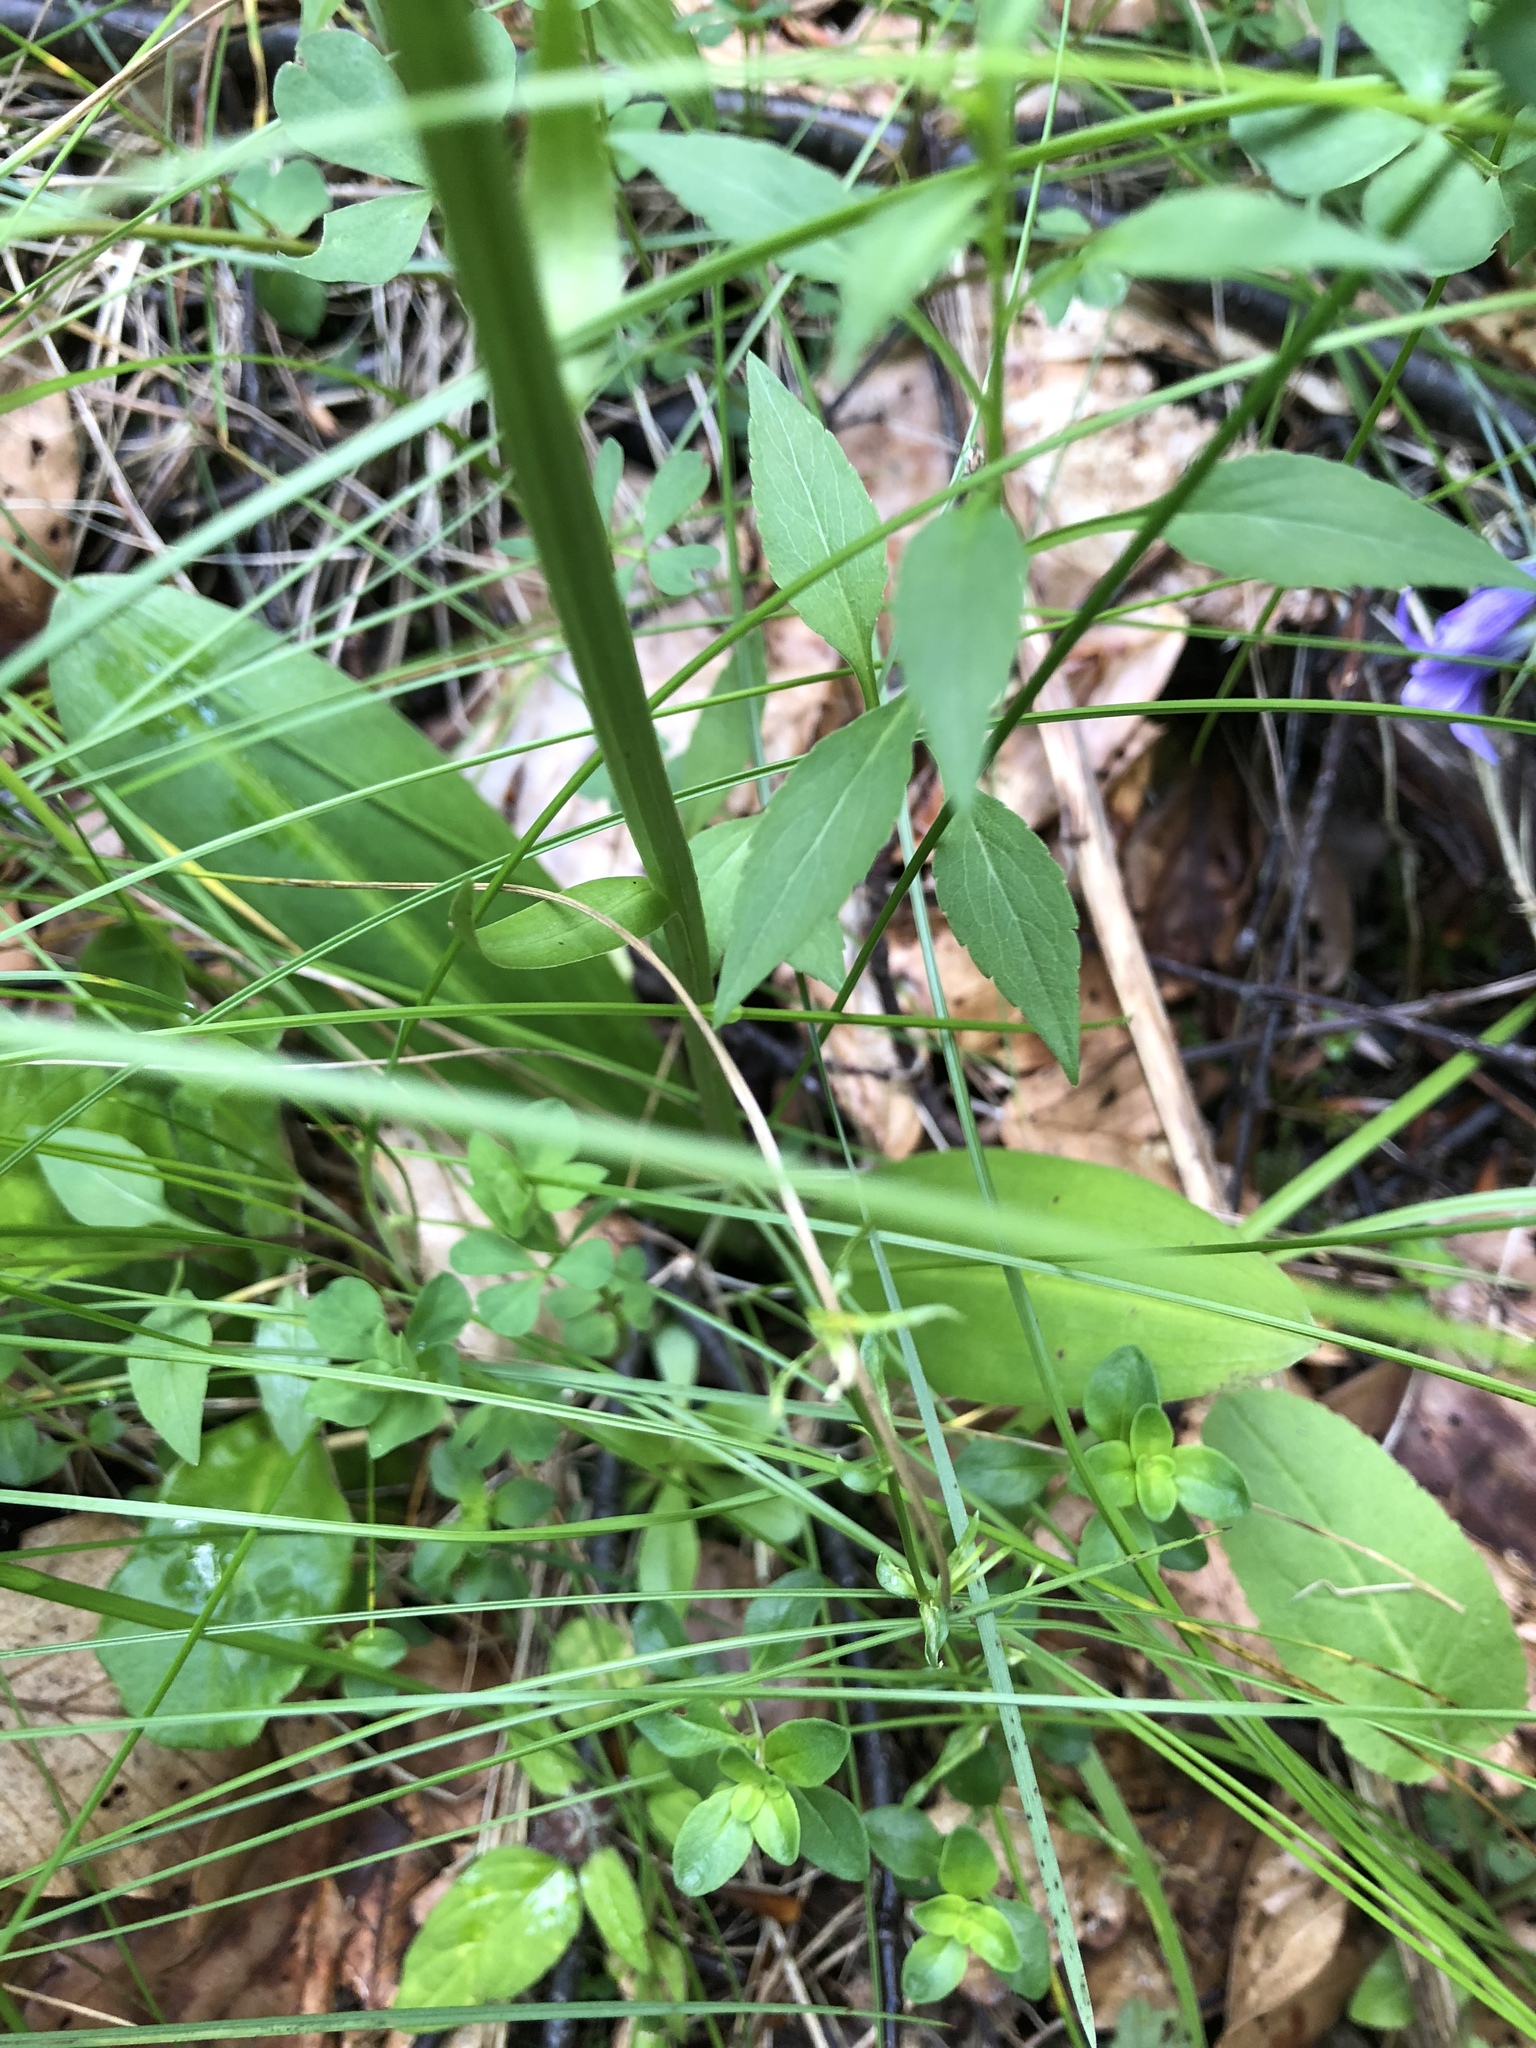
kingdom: Plantae
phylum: Tracheophyta
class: Liliopsida
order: Asparagales
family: Orchidaceae
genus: Platanthera
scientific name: Platanthera bifolia
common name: Lesser butterfly-orchid
